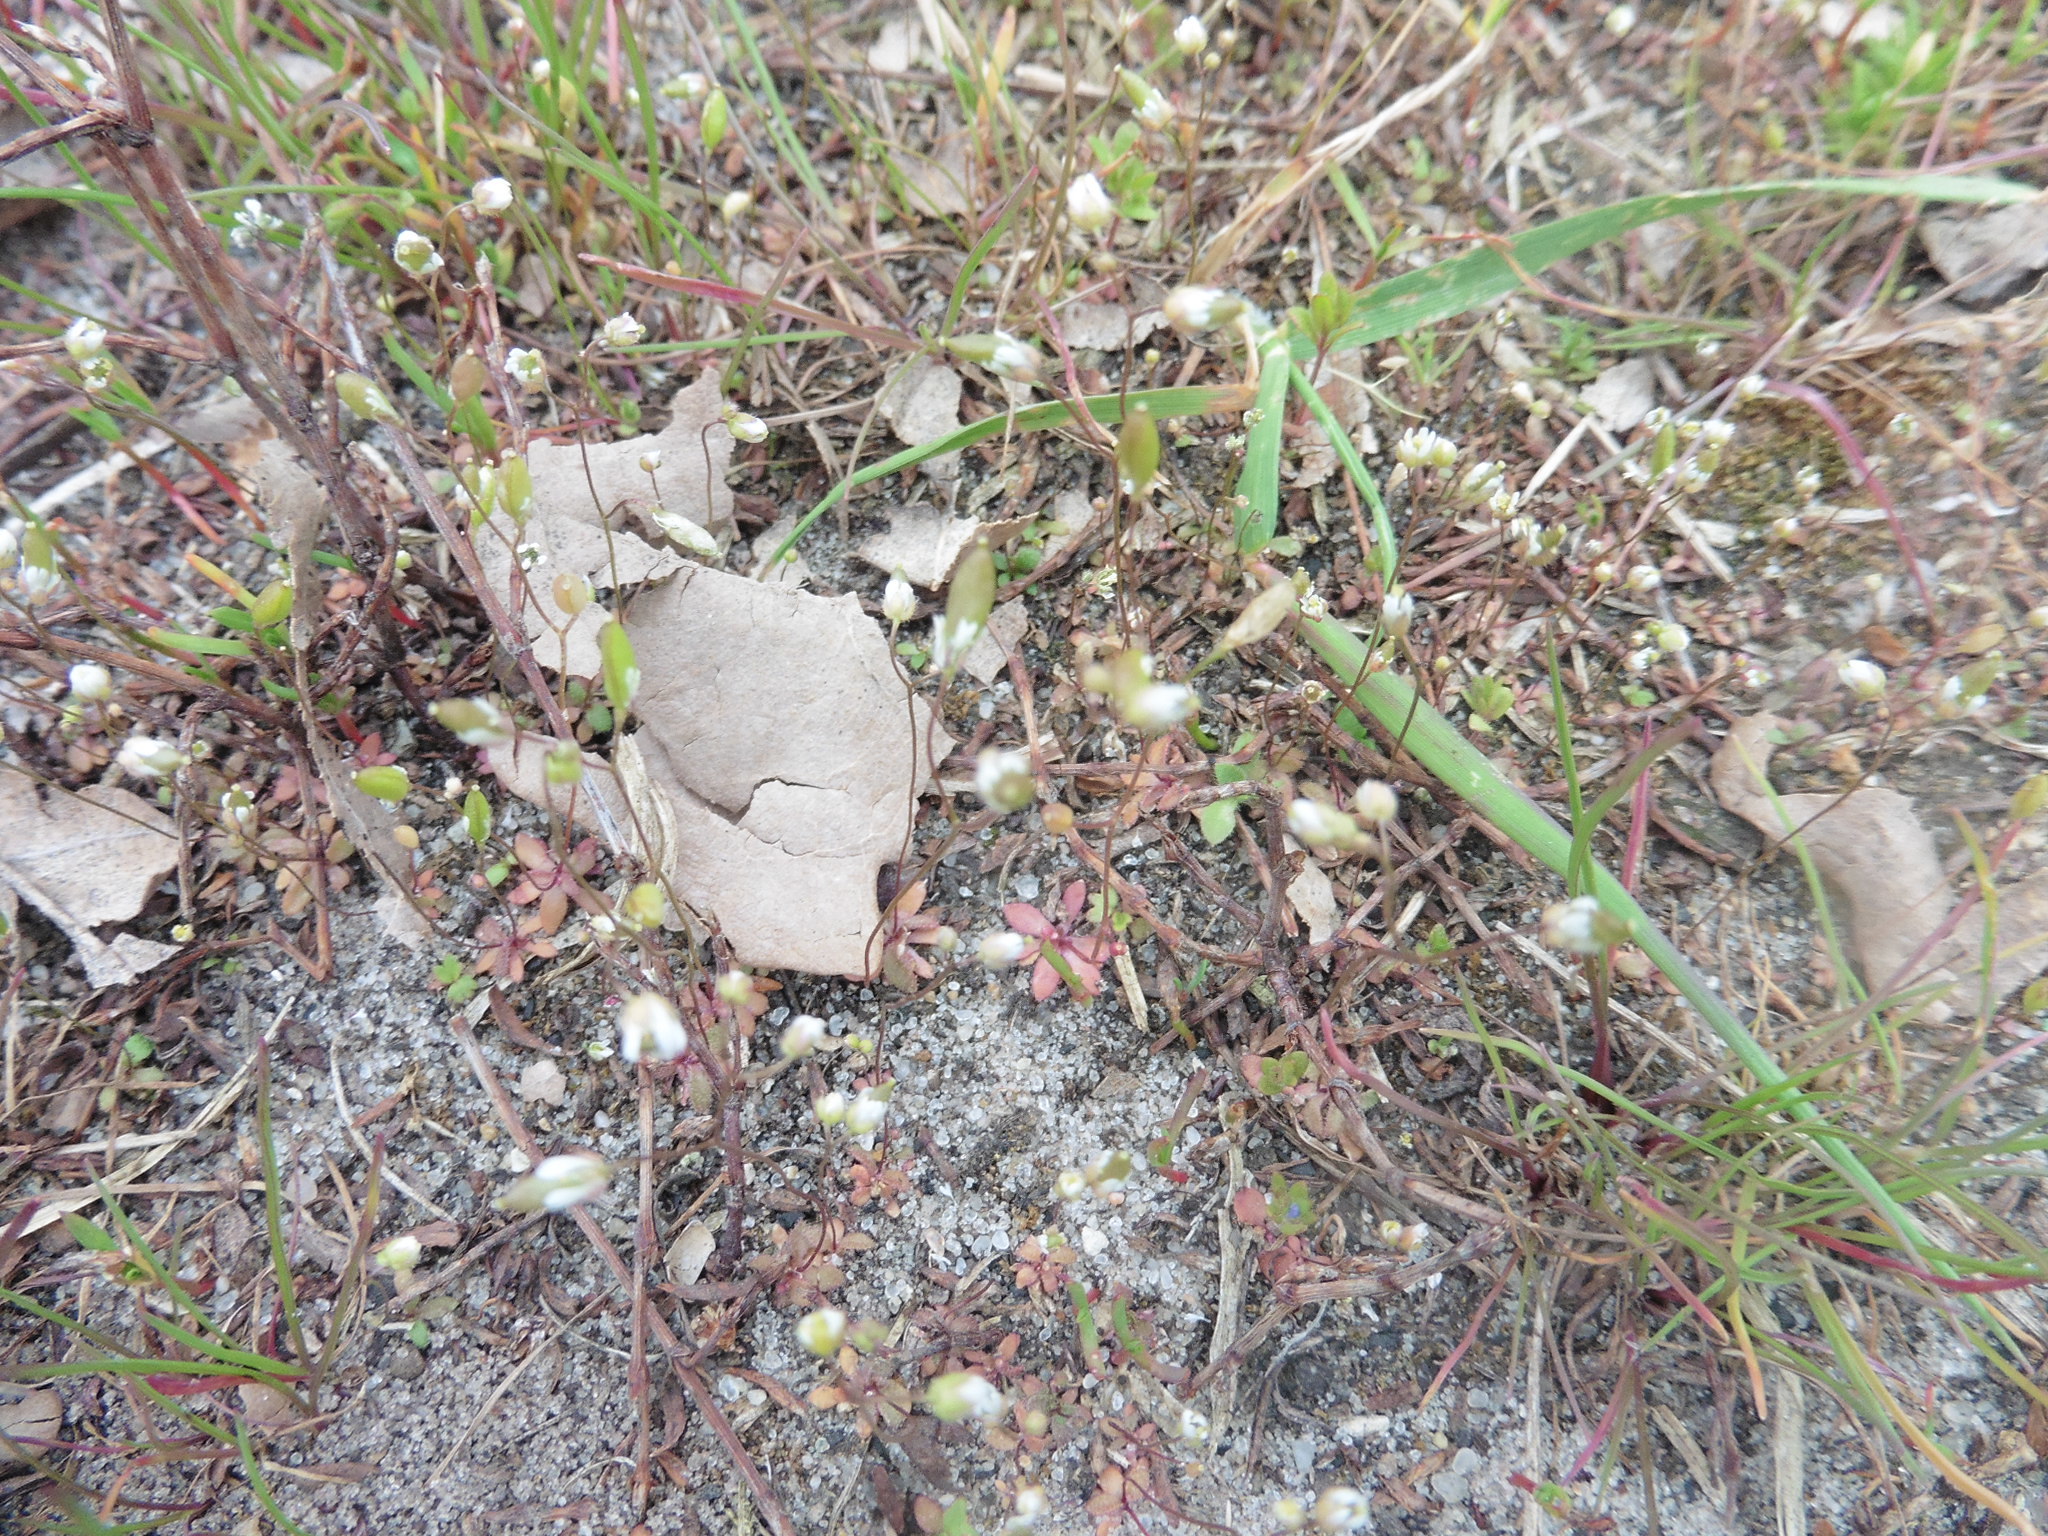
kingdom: Plantae
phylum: Tracheophyta
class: Magnoliopsida
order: Brassicales
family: Brassicaceae
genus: Draba
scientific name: Draba verna
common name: Spring draba
